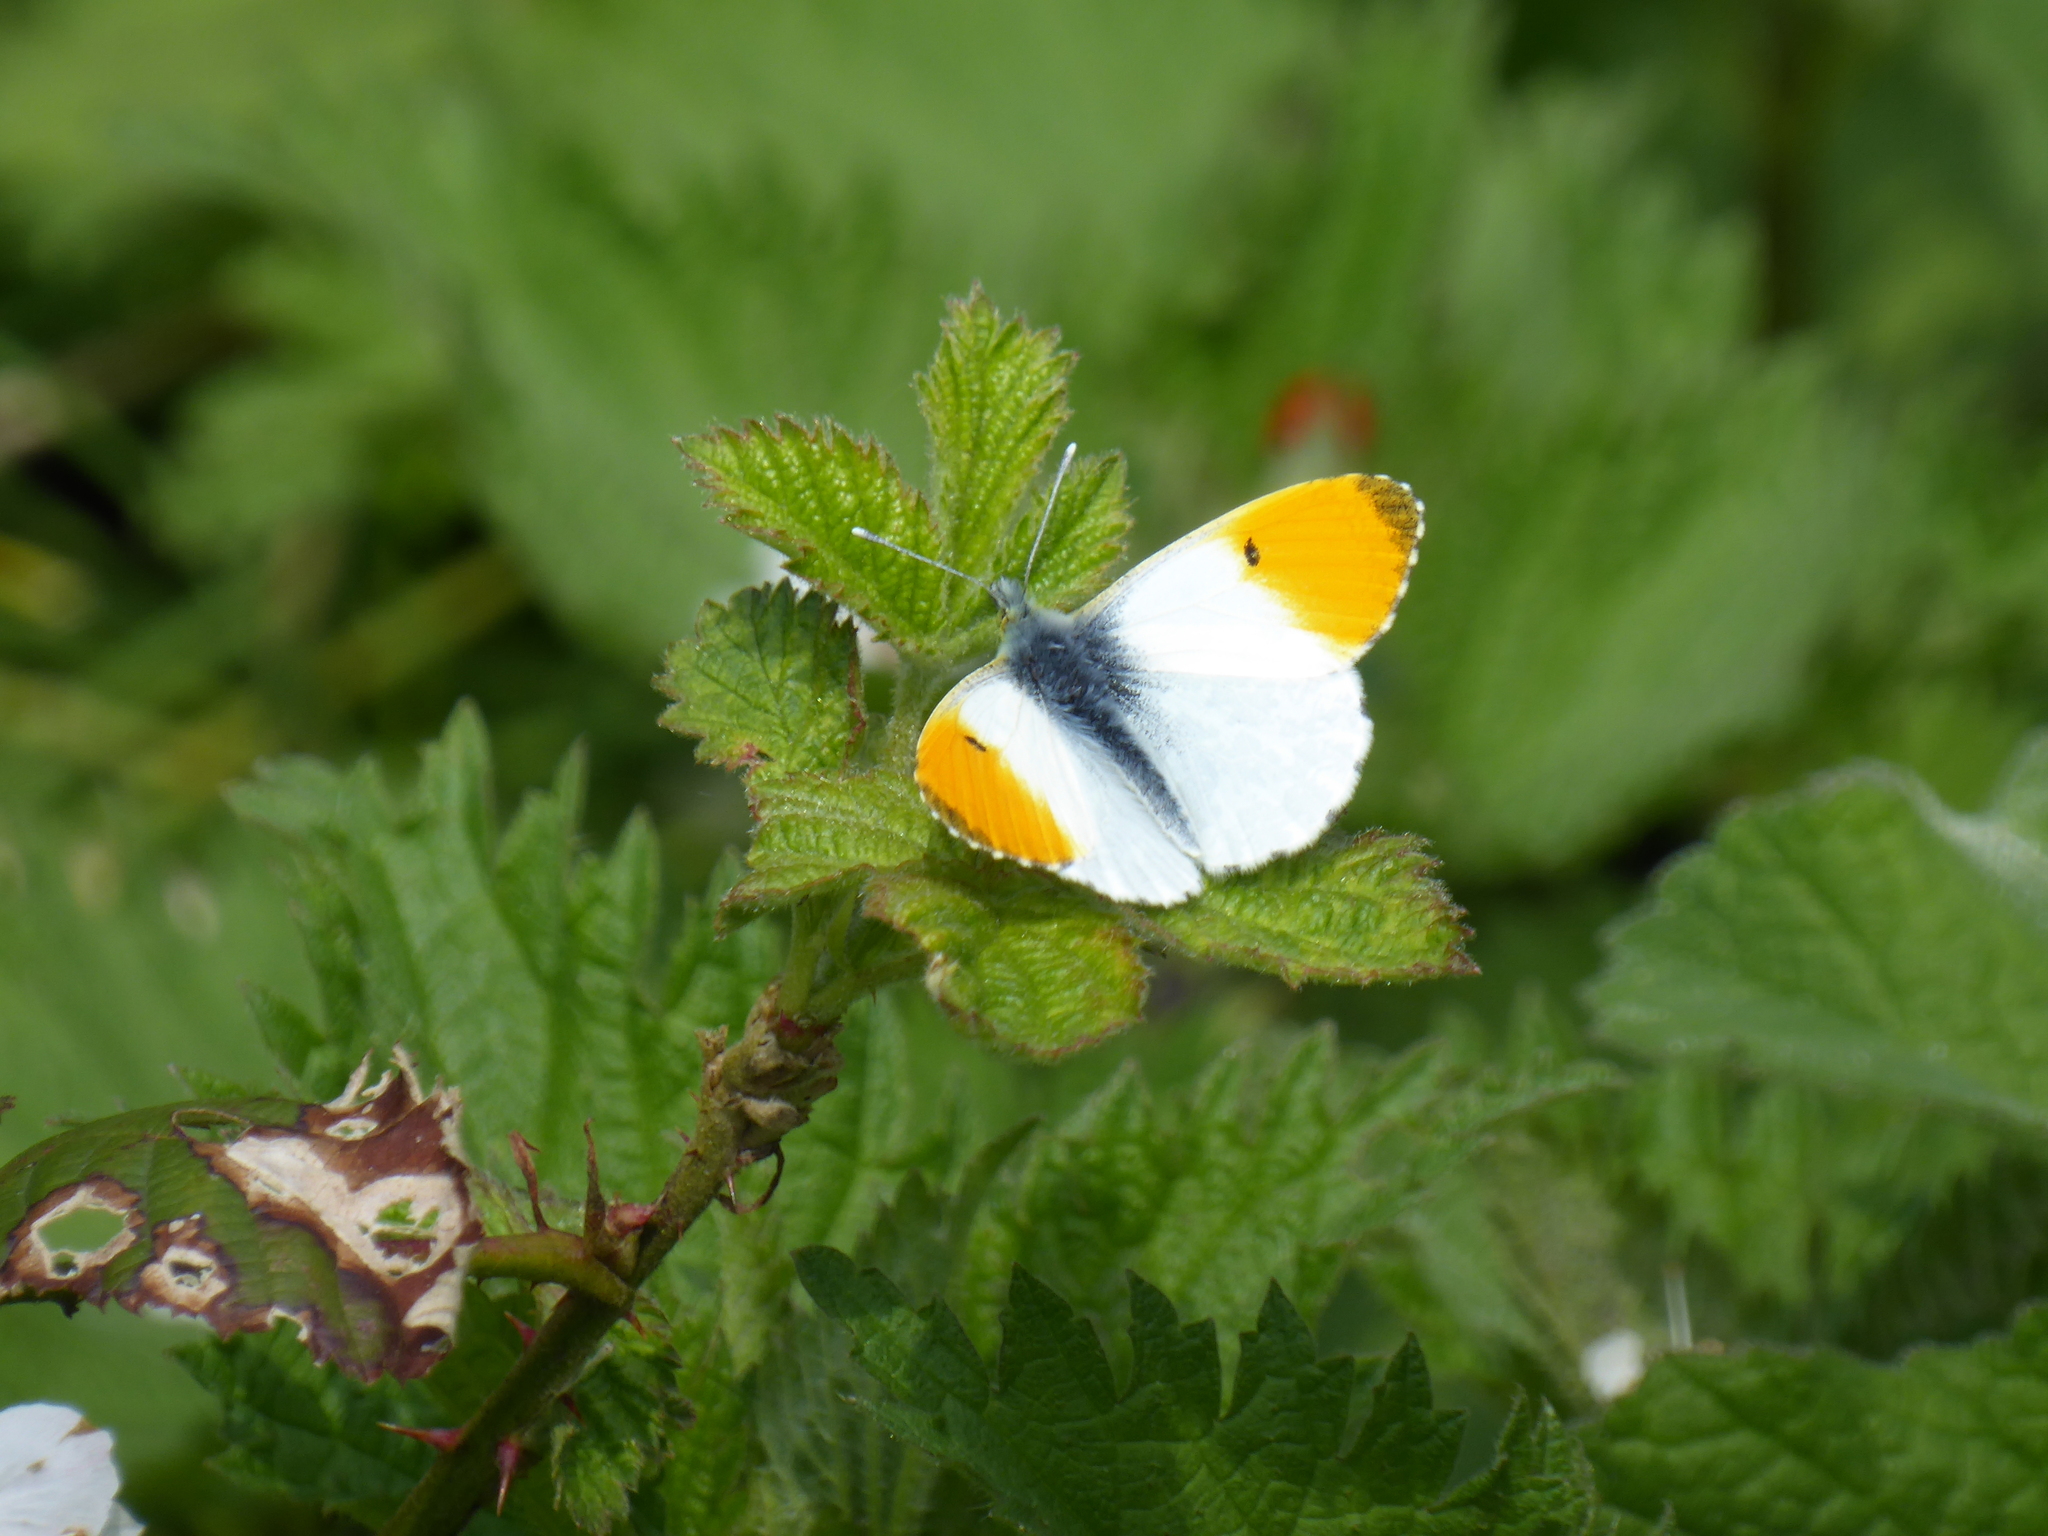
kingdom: Animalia
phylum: Arthropoda
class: Insecta
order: Lepidoptera
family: Pieridae
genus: Anthocharis
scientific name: Anthocharis cardamines
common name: Orange-tip
